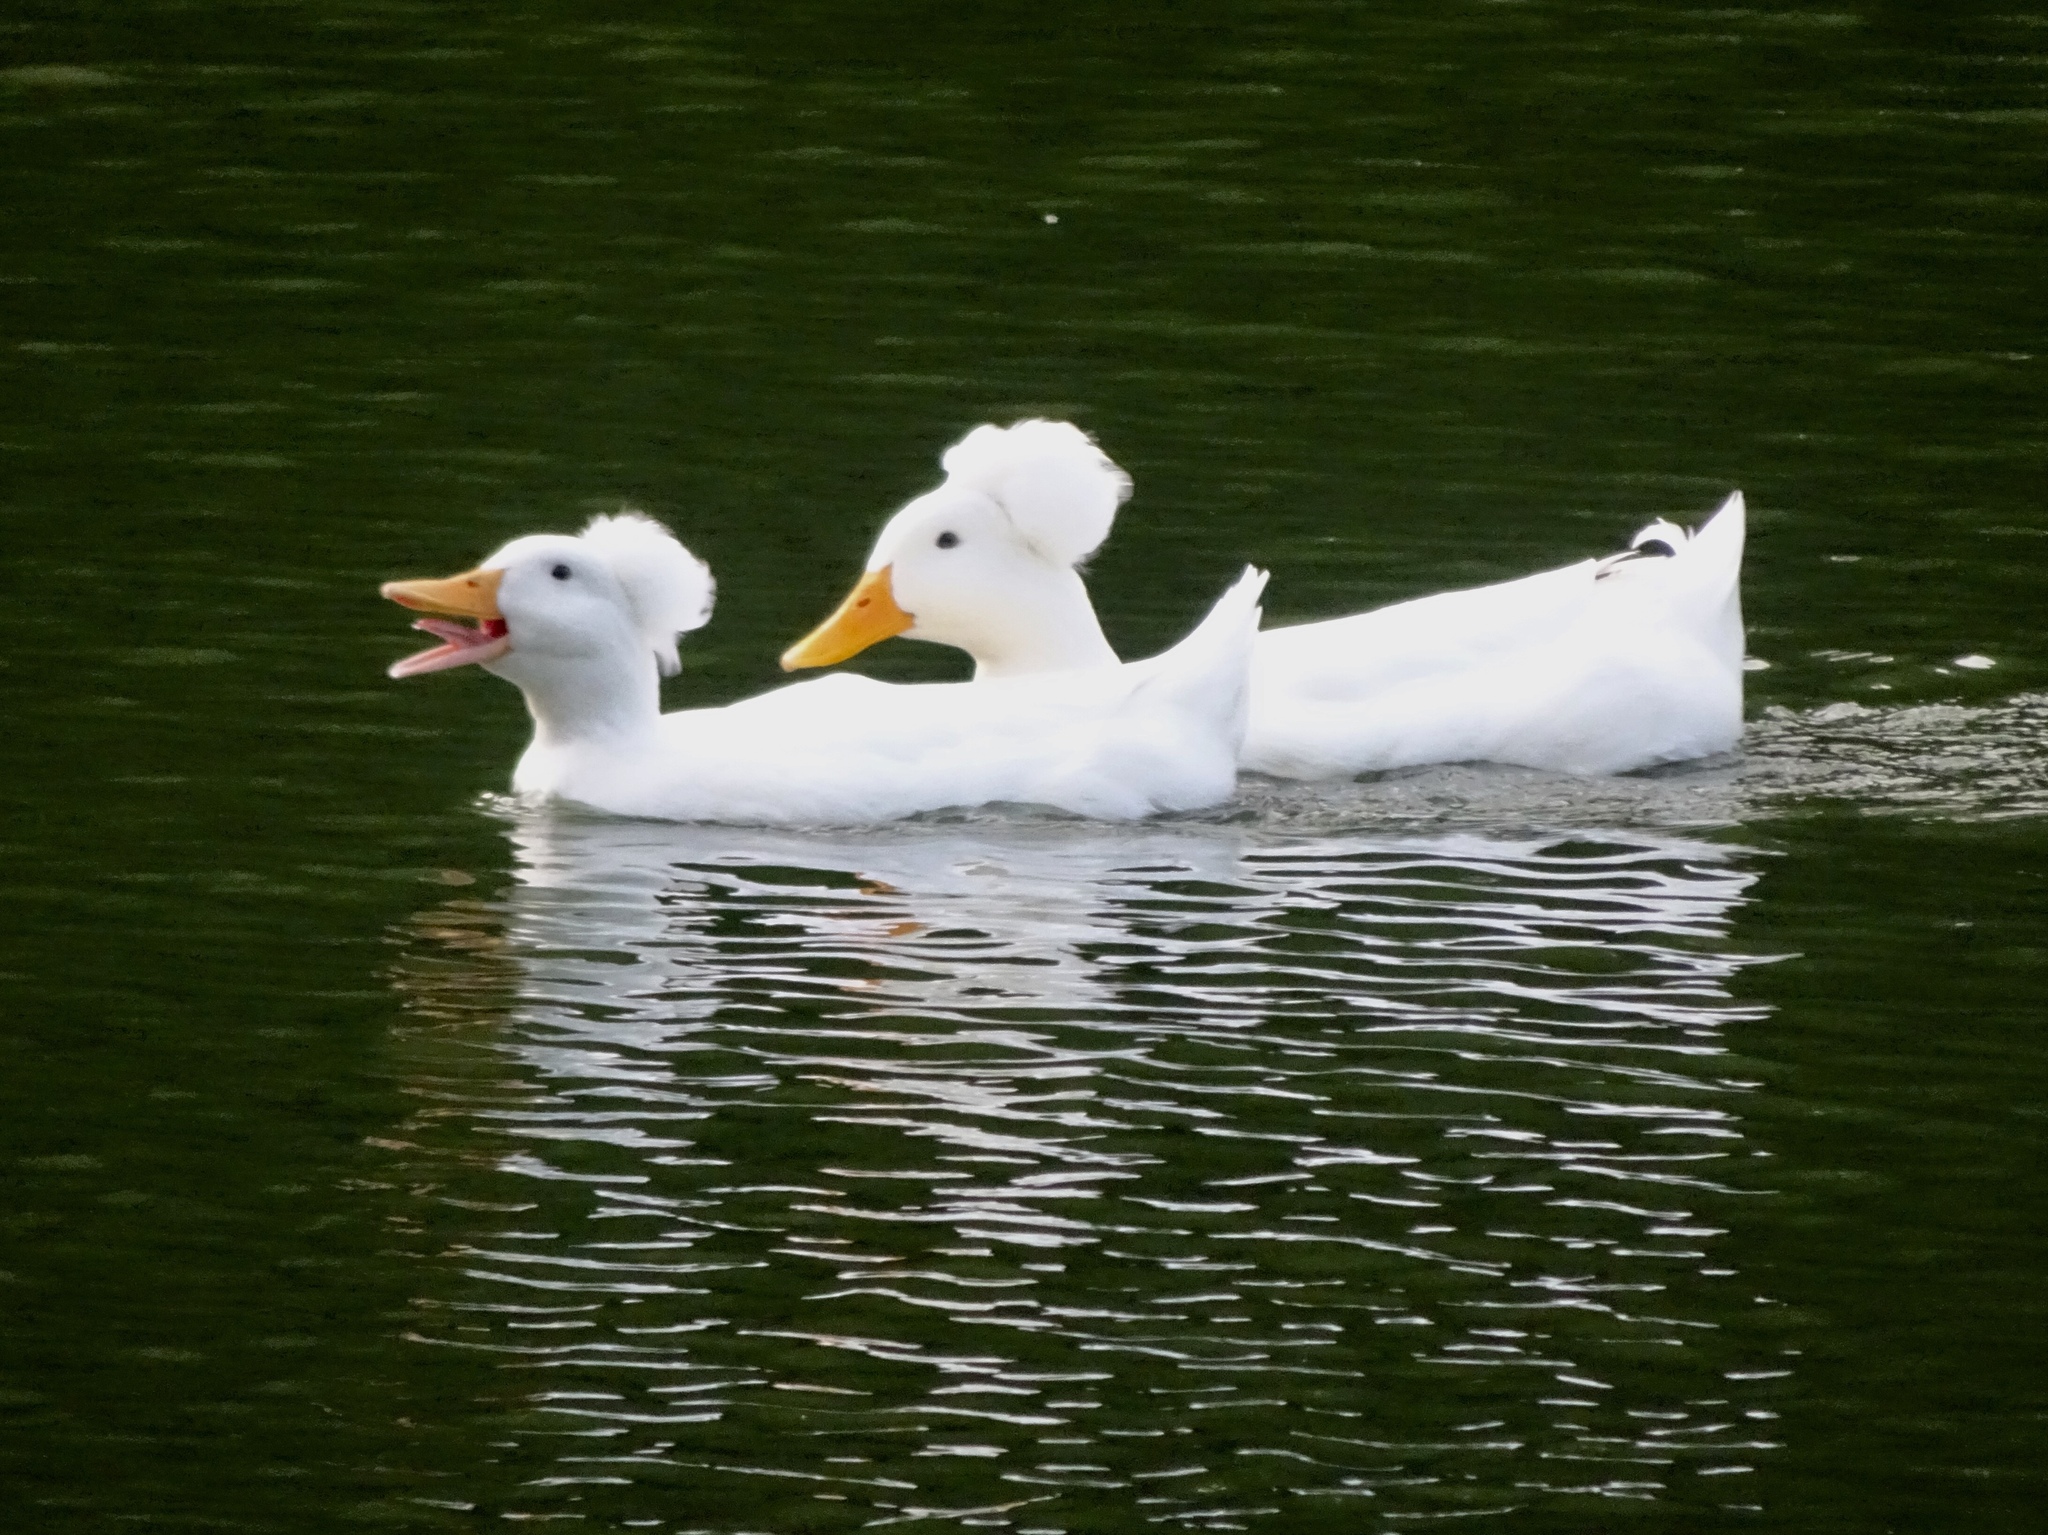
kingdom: Animalia
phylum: Chordata
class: Aves
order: Anseriformes
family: Anatidae
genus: Anas
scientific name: Anas platyrhynchos
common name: Mallard
